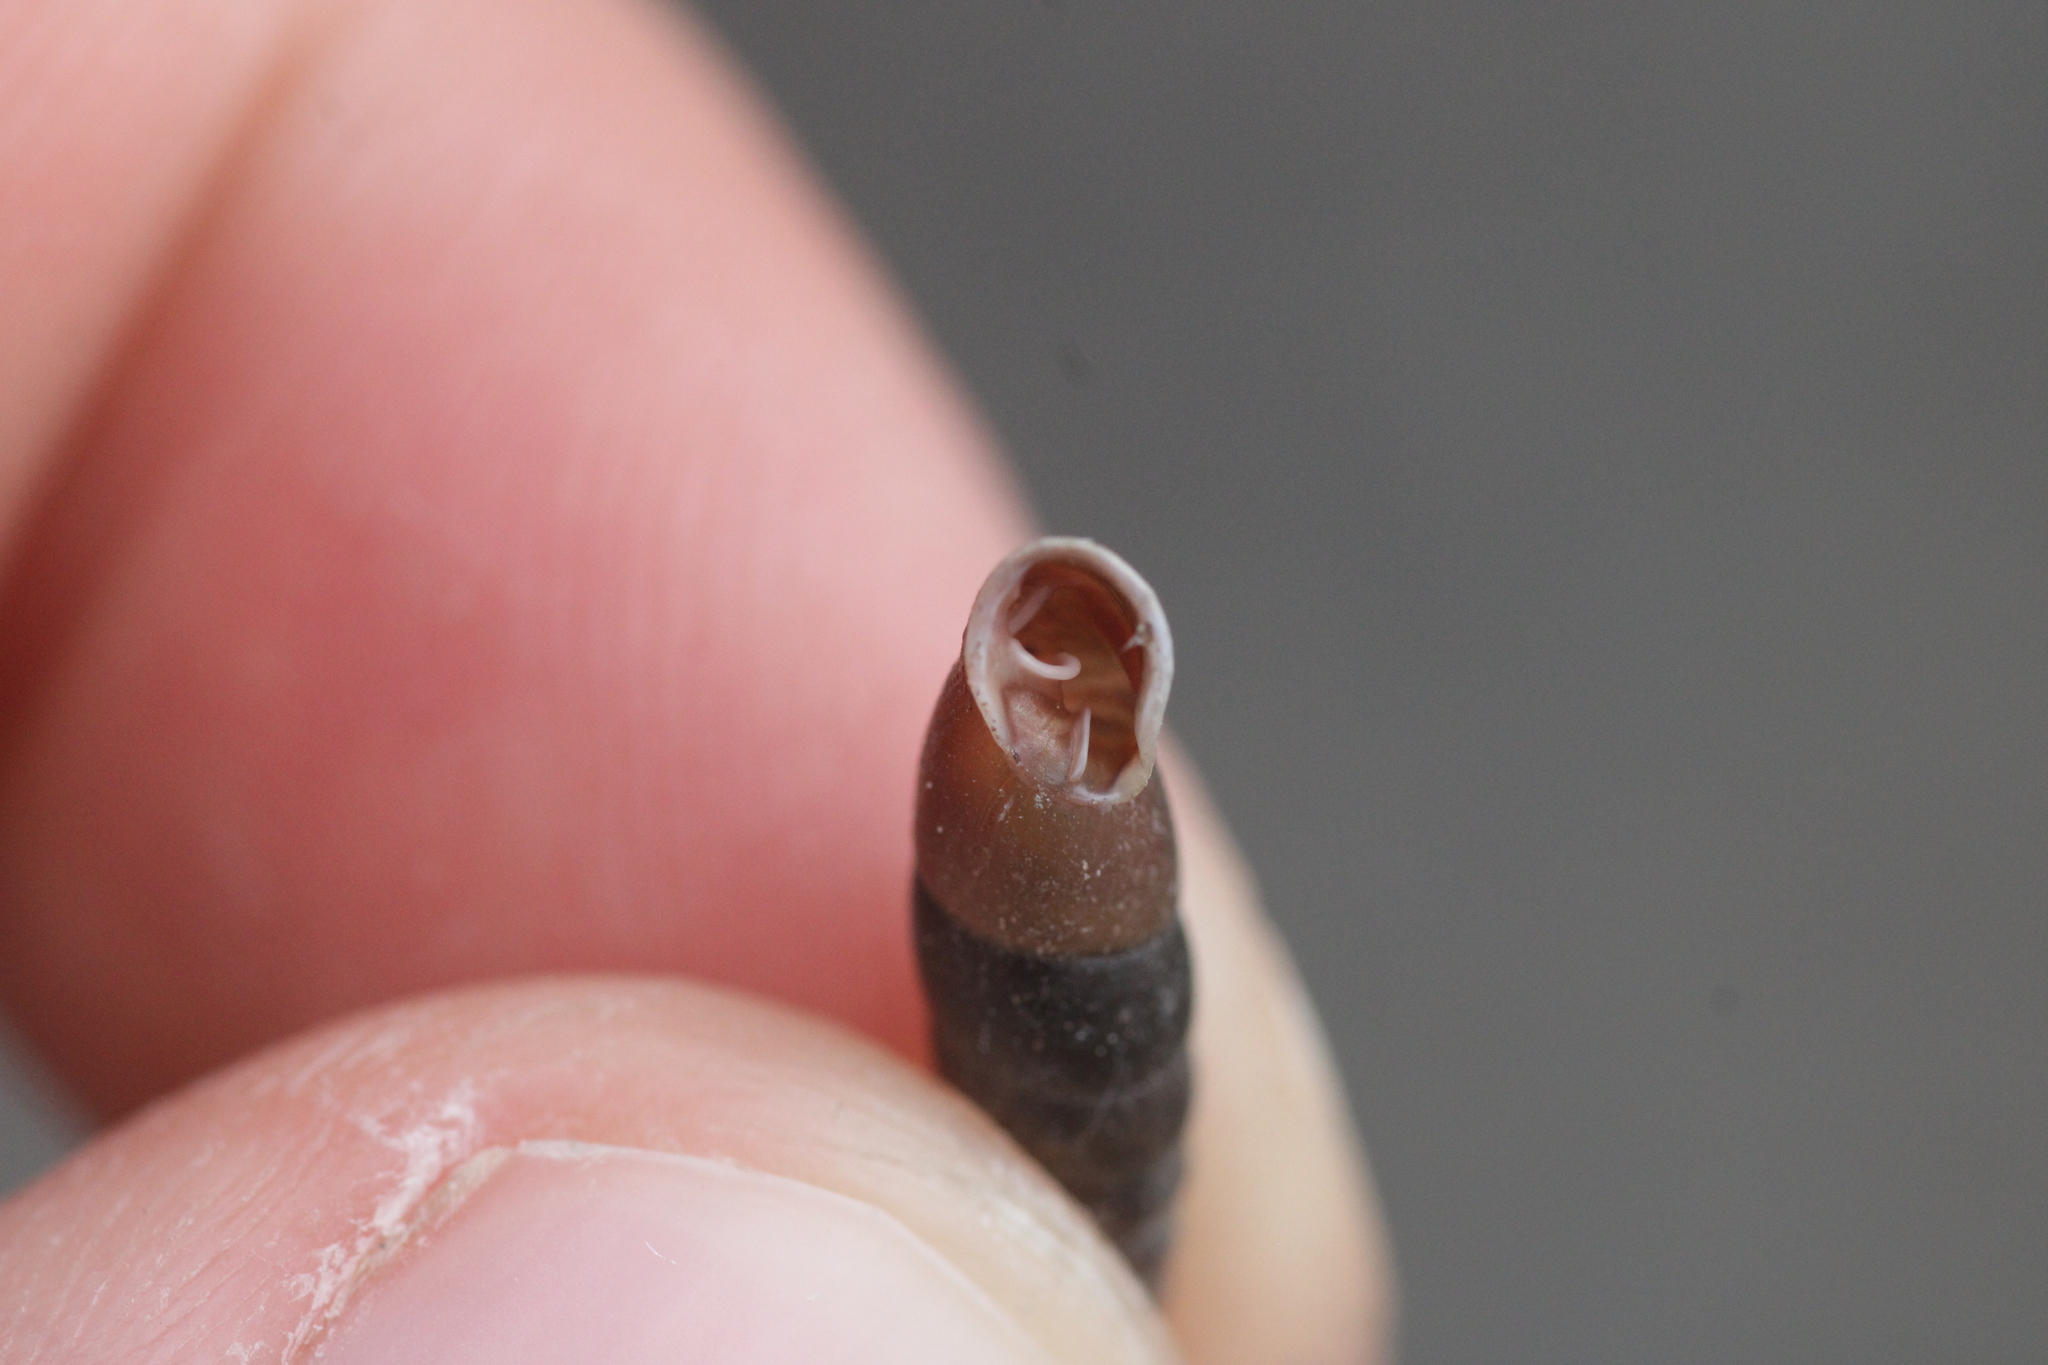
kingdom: Animalia
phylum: Mollusca
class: Gastropoda
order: Stylommatophora
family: Clausiliidae
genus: Cochlodina
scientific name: Cochlodina laminata
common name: Plaited door snail
